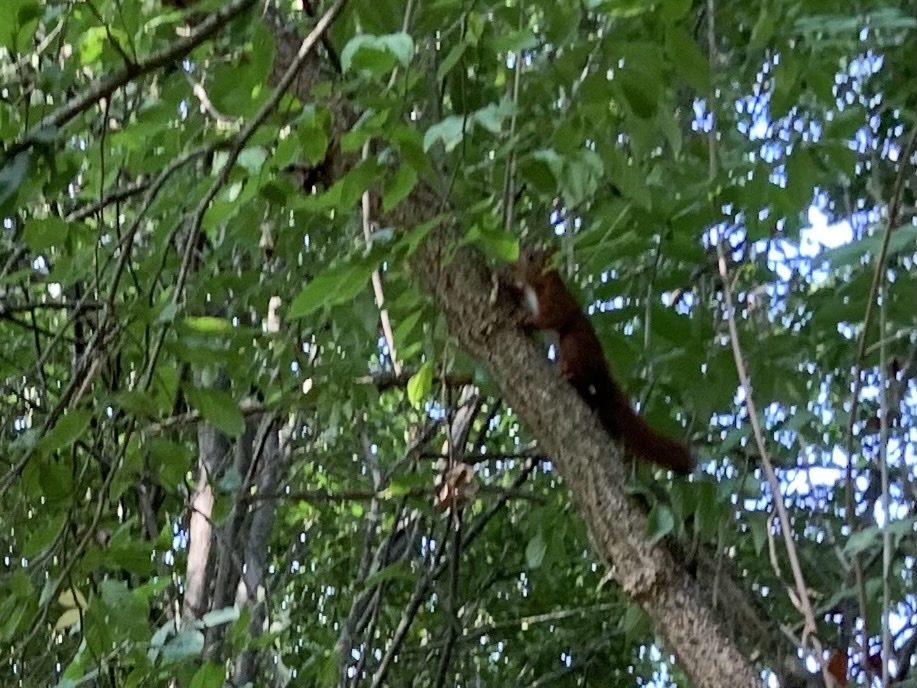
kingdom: Animalia
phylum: Chordata
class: Mammalia
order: Rodentia
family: Sciuridae
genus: Sciurus
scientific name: Sciurus vulgaris
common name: Eurasian red squirrel
